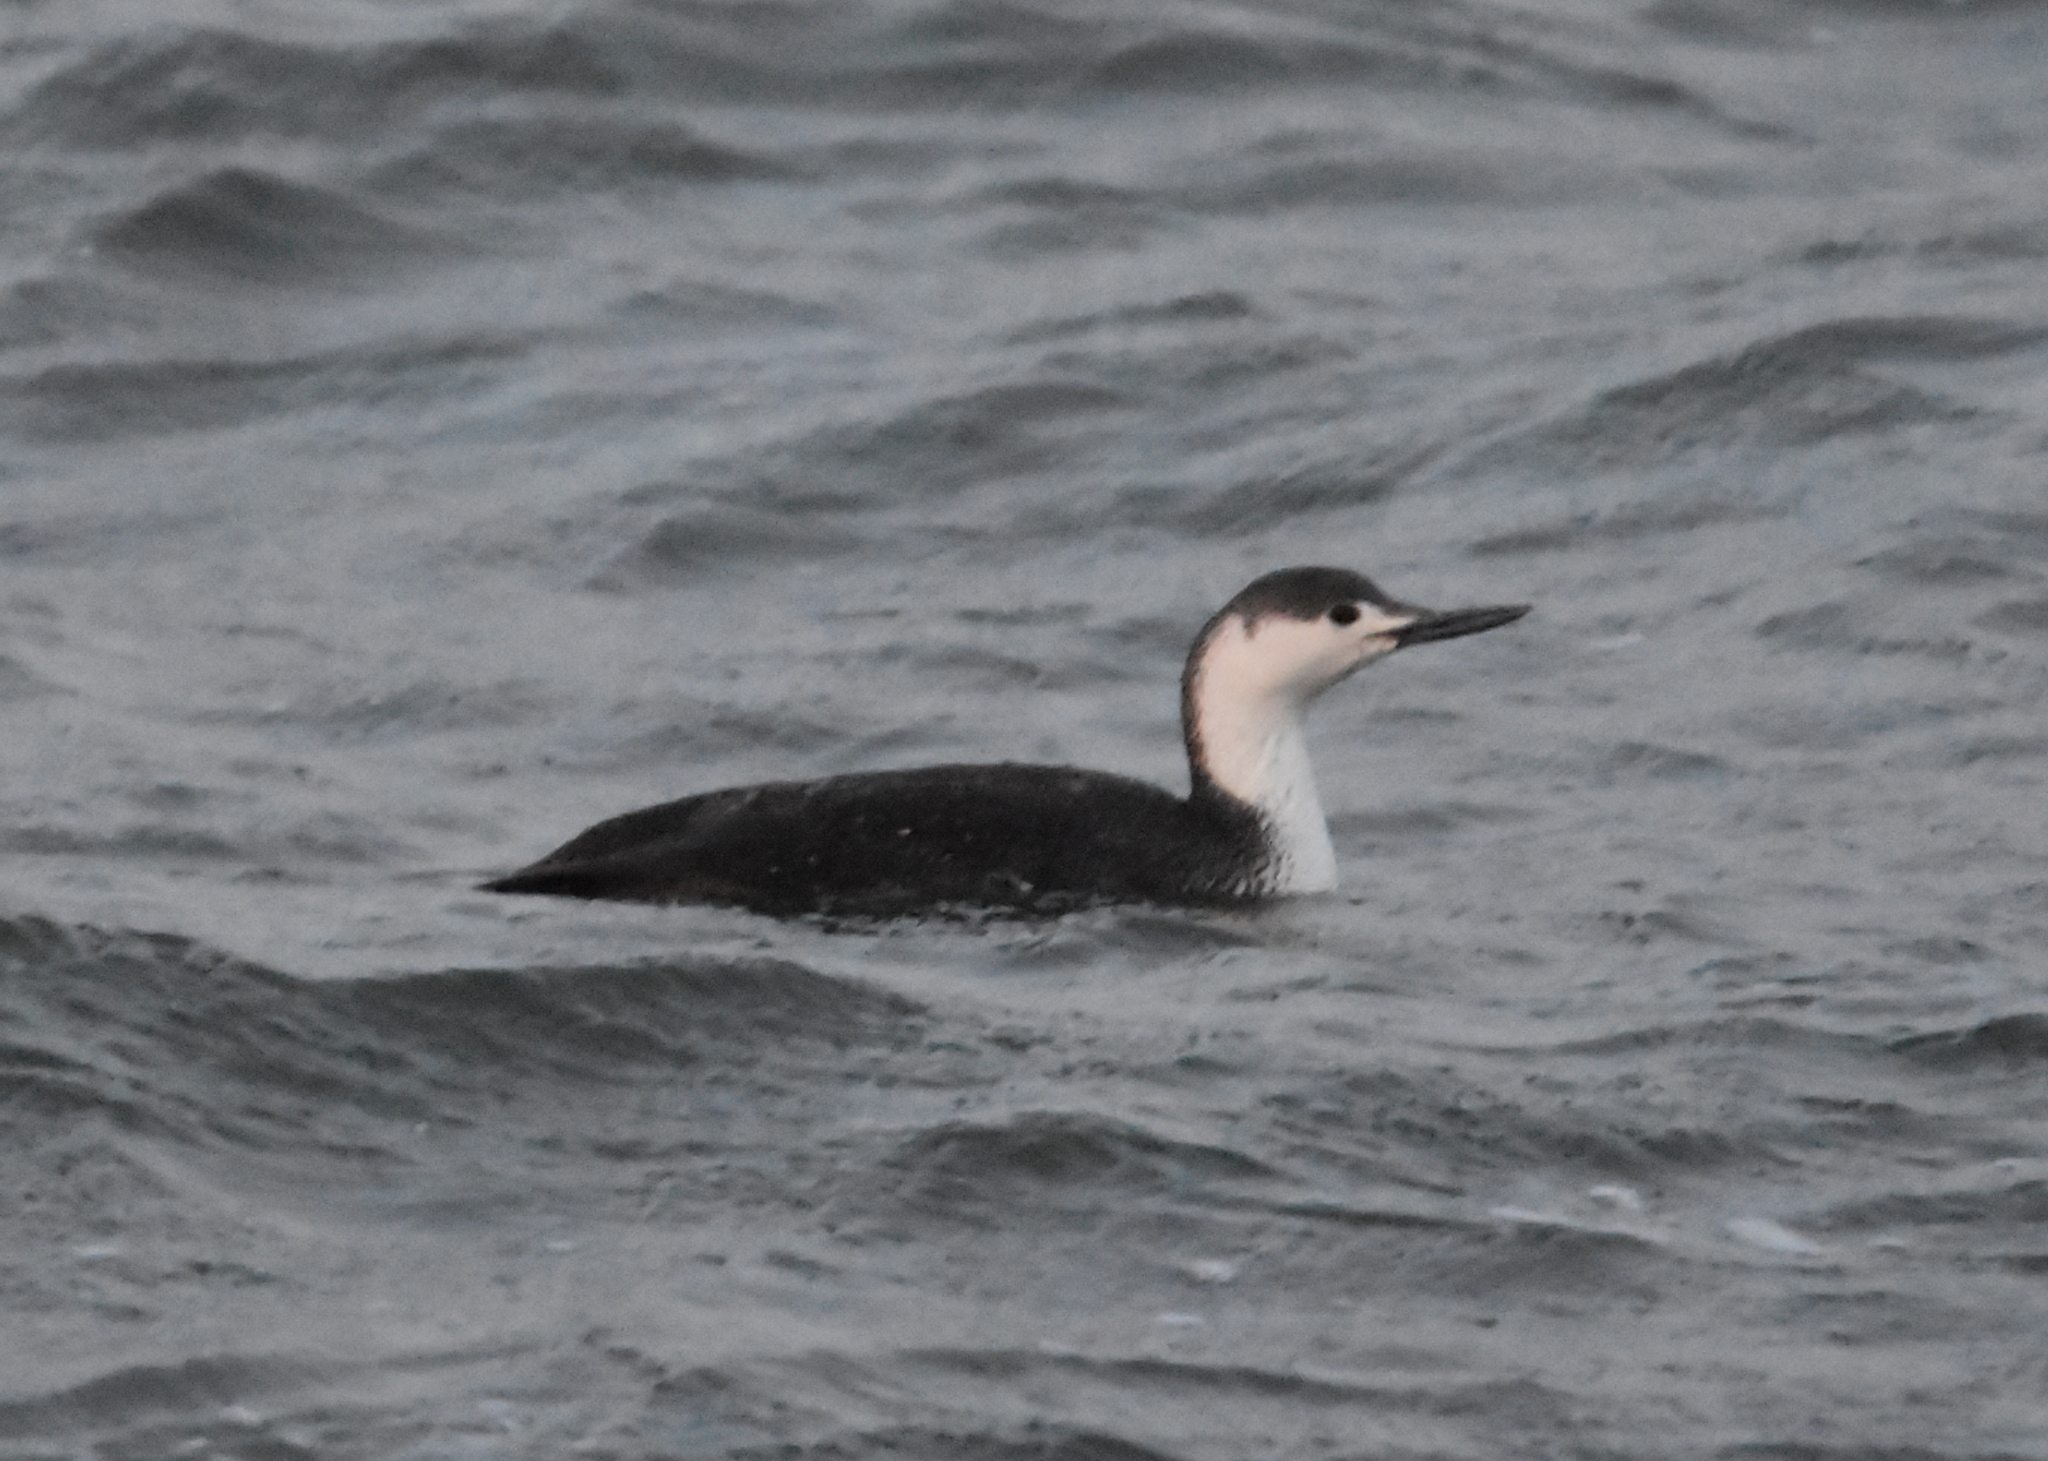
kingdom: Animalia
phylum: Chordata
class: Aves
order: Gaviiformes
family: Gaviidae
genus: Gavia
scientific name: Gavia stellata
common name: Red-throated loon
